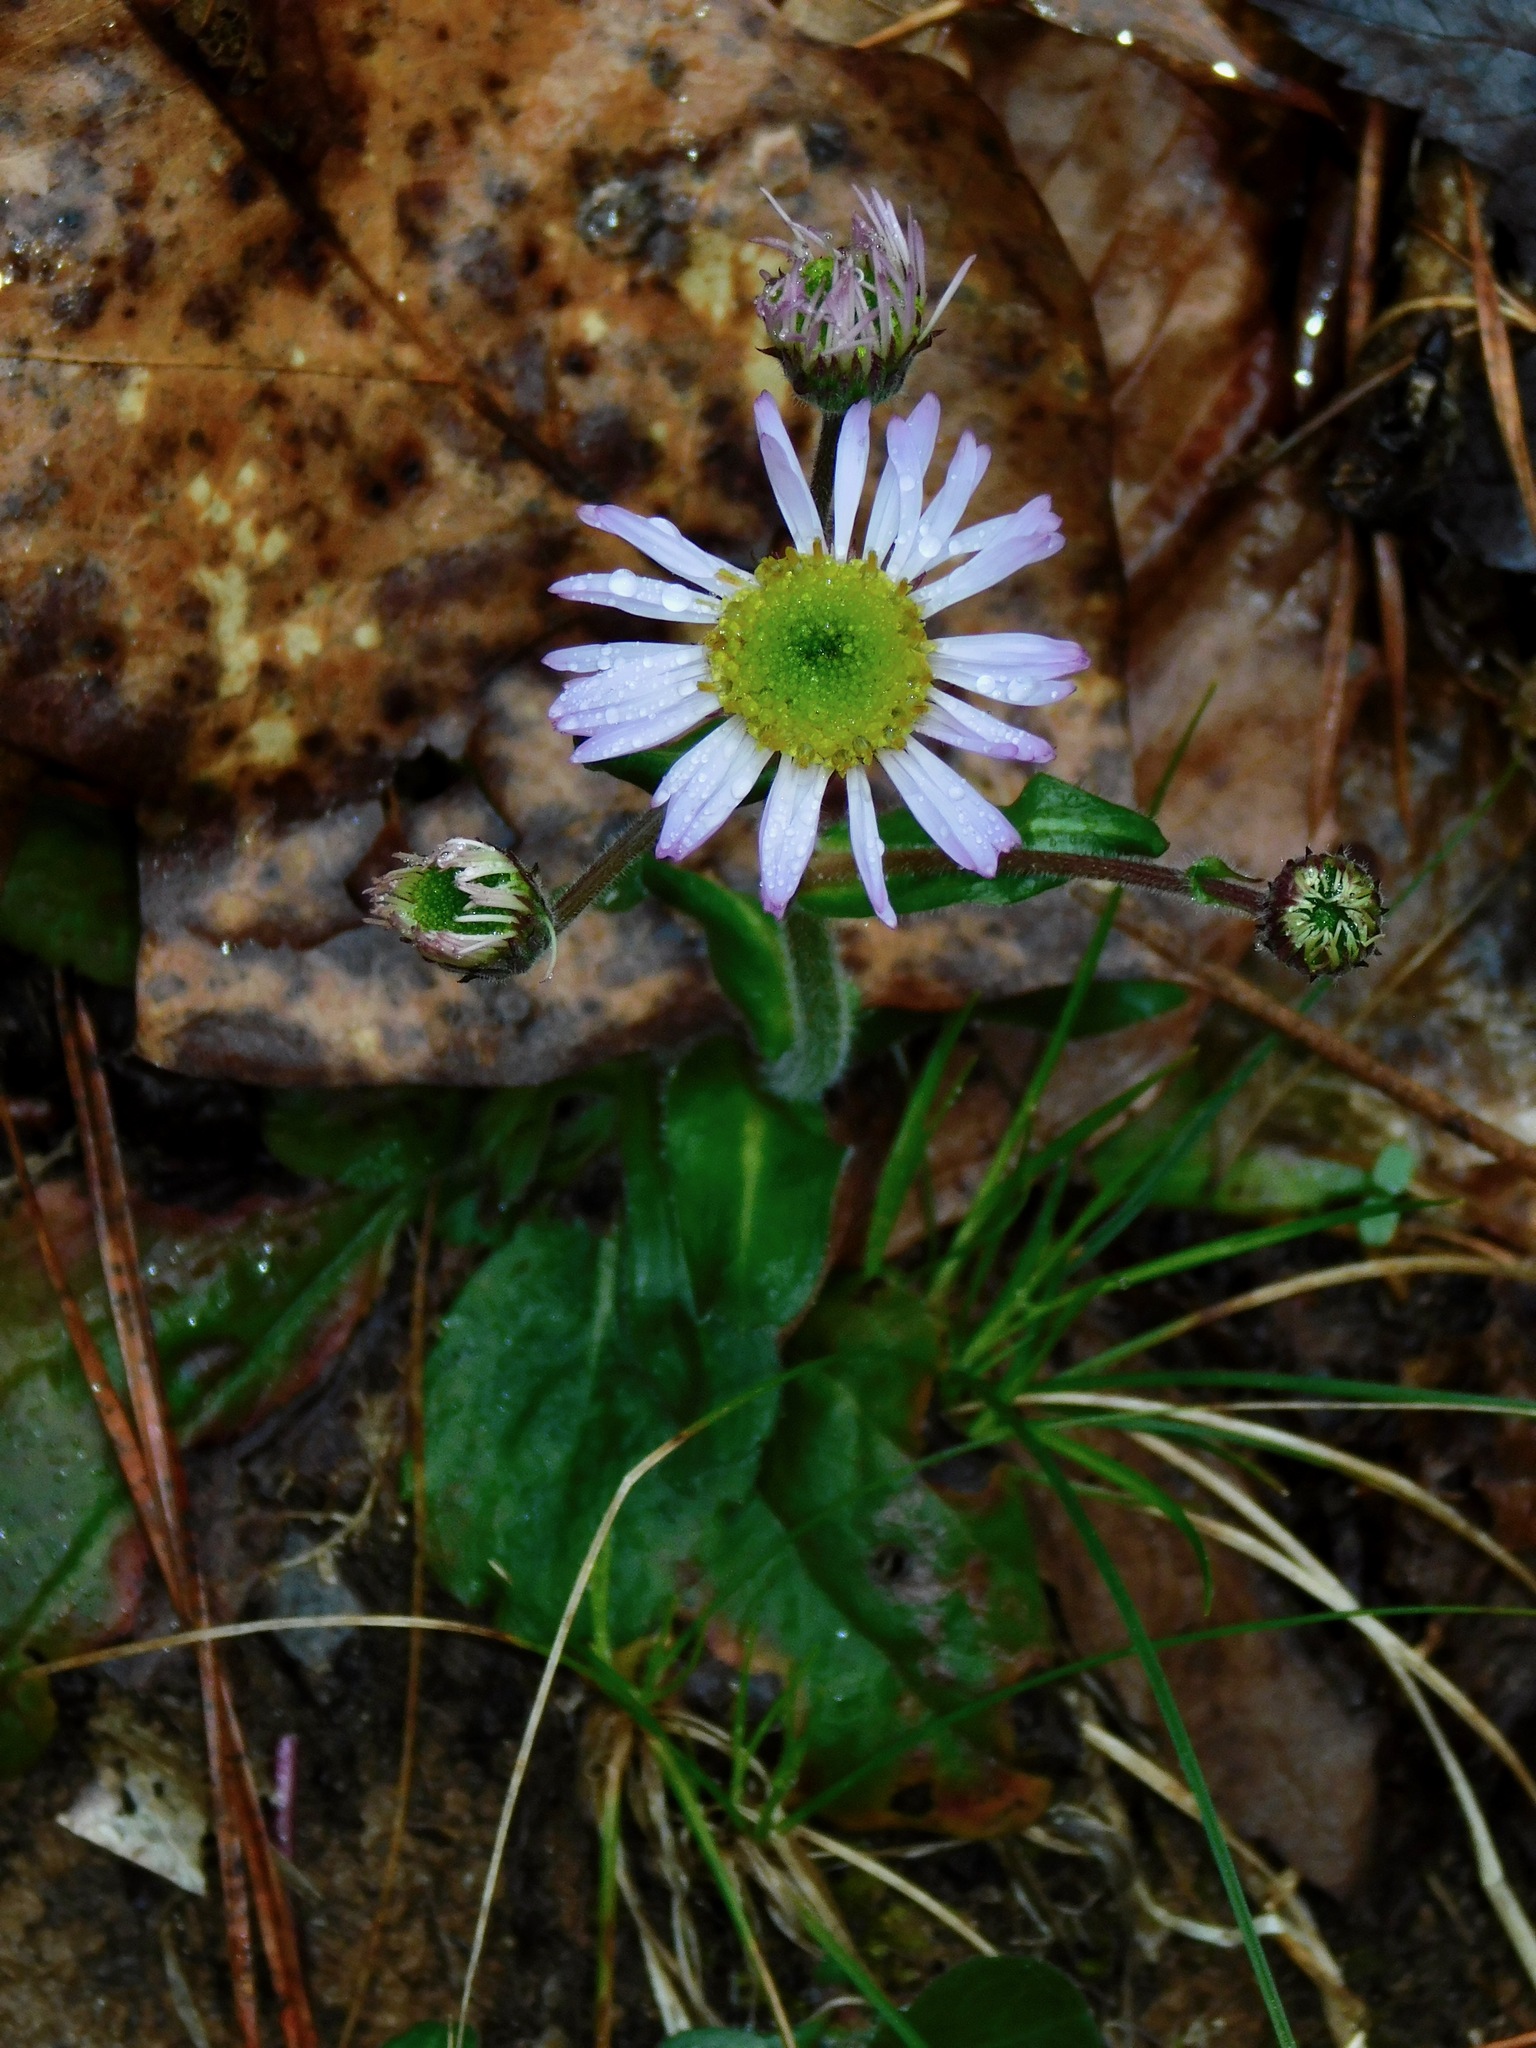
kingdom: Plantae
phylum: Tracheophyta
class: Magnoliopsida
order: Asterales
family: Asteraceae
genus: Erigeron
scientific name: Erigeron pulchellus
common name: Hairy fleabane
